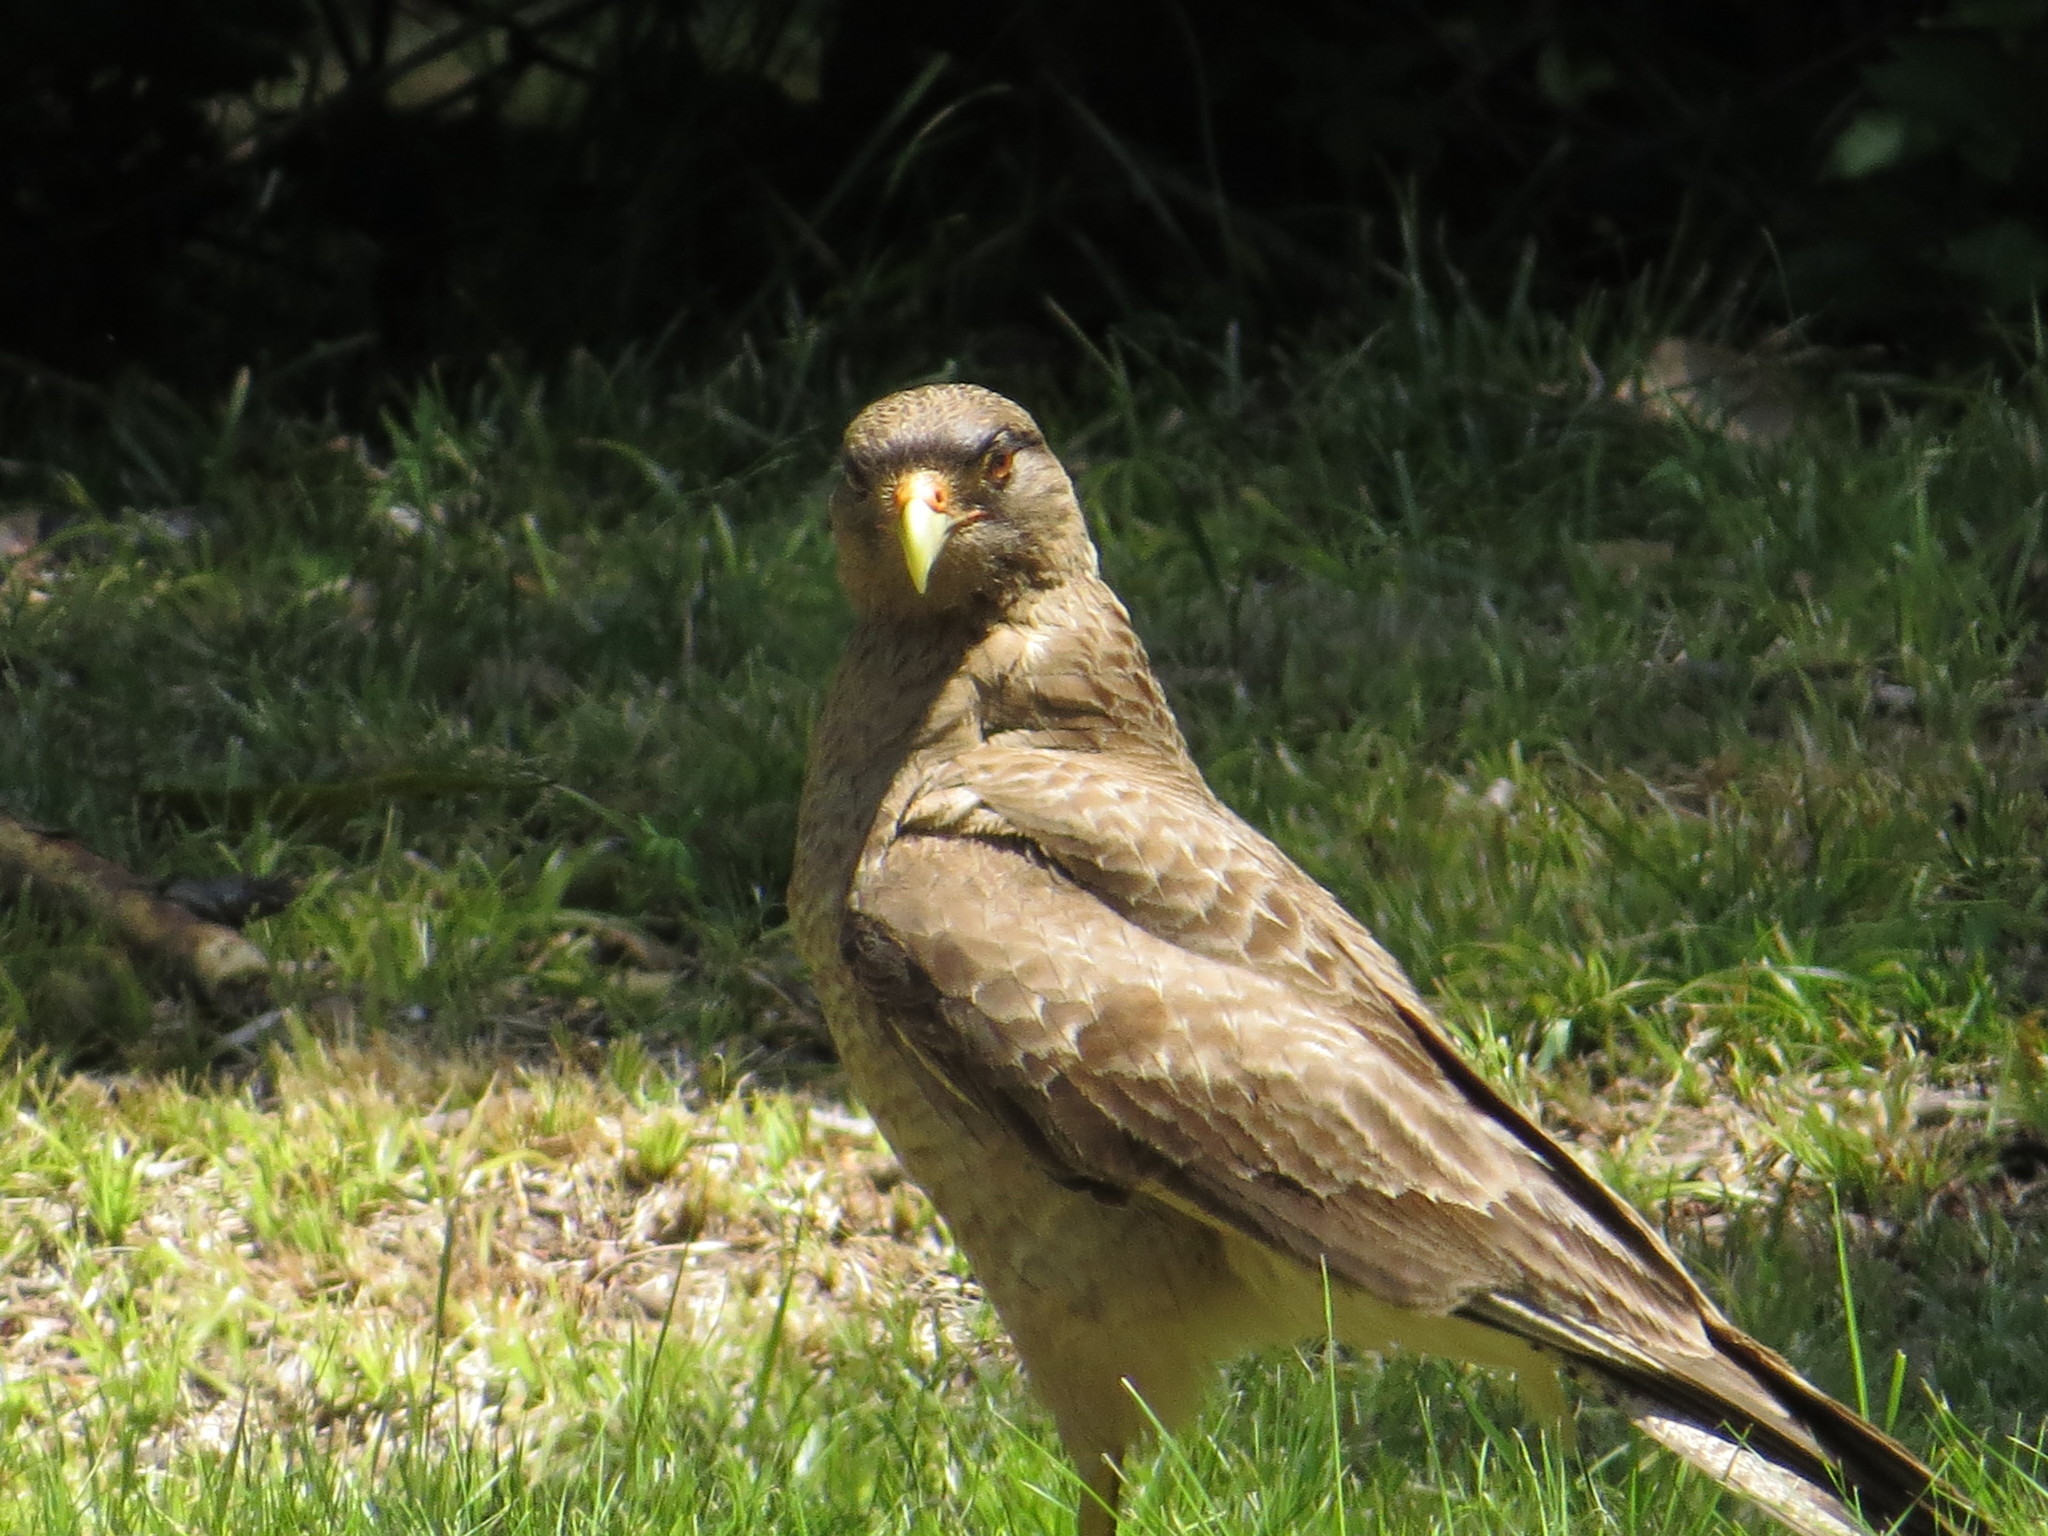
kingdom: Animalia
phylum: Chordata
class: Aves
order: Falconiformes
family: Falconidae
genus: Daptrius
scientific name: Daptrius
